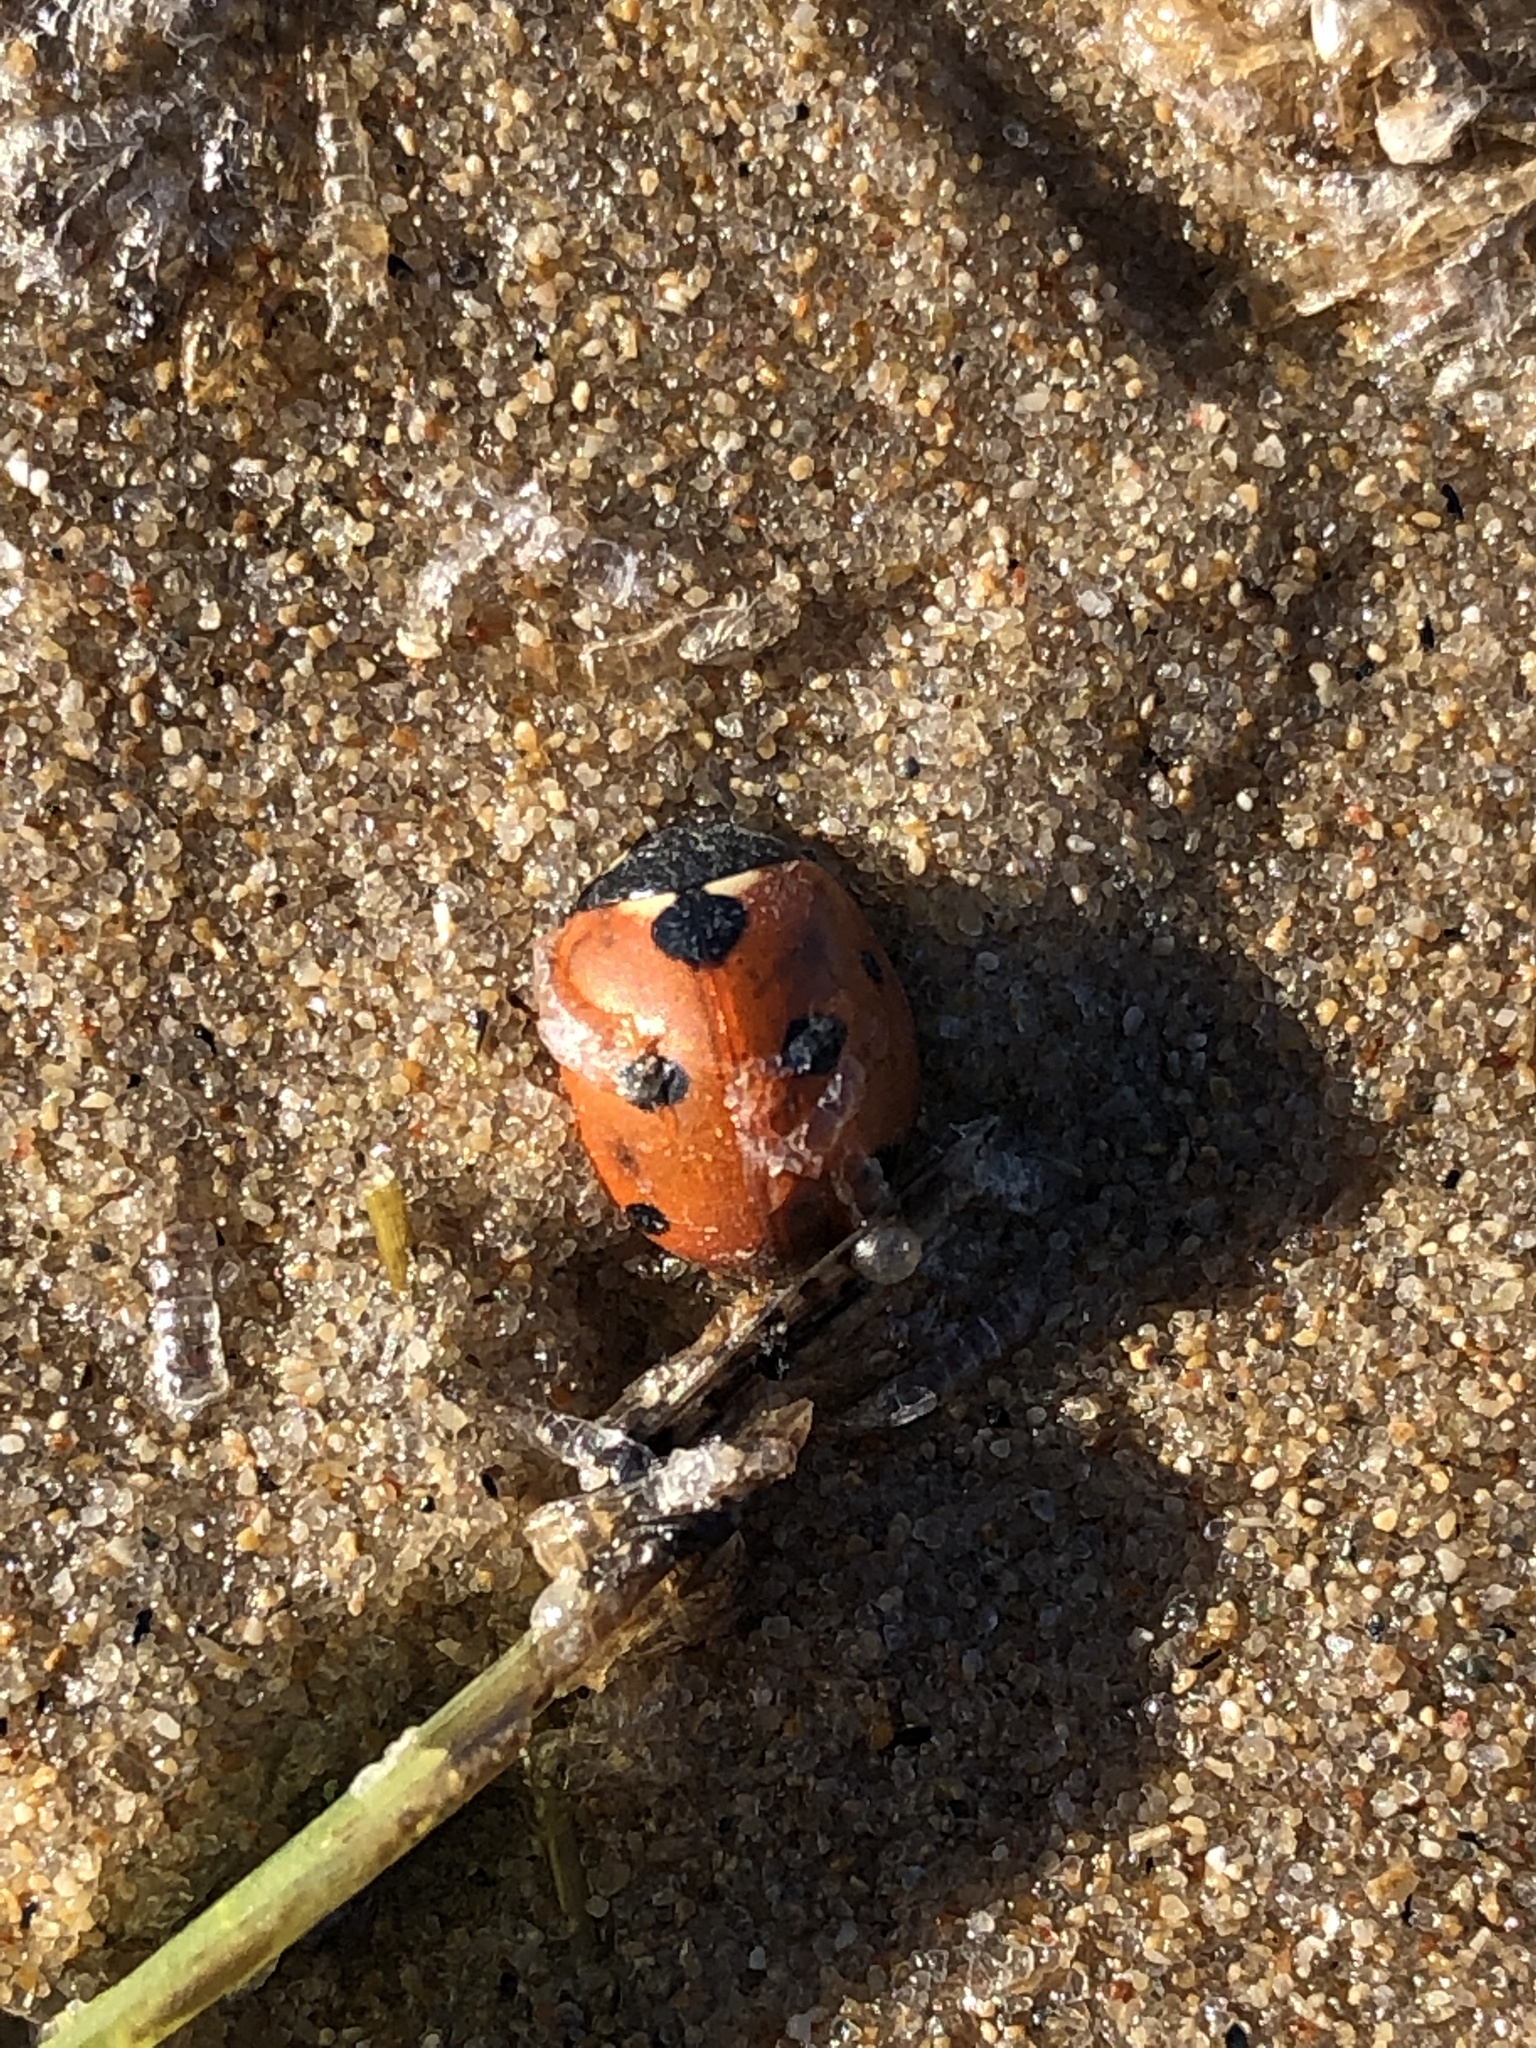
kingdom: Animalia
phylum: Arthropoda
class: Insecta
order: Coleoptera
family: Coccinellidae
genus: Coccinella
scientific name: Coccinella septempunctata
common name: Sevenspotted lady beetle
